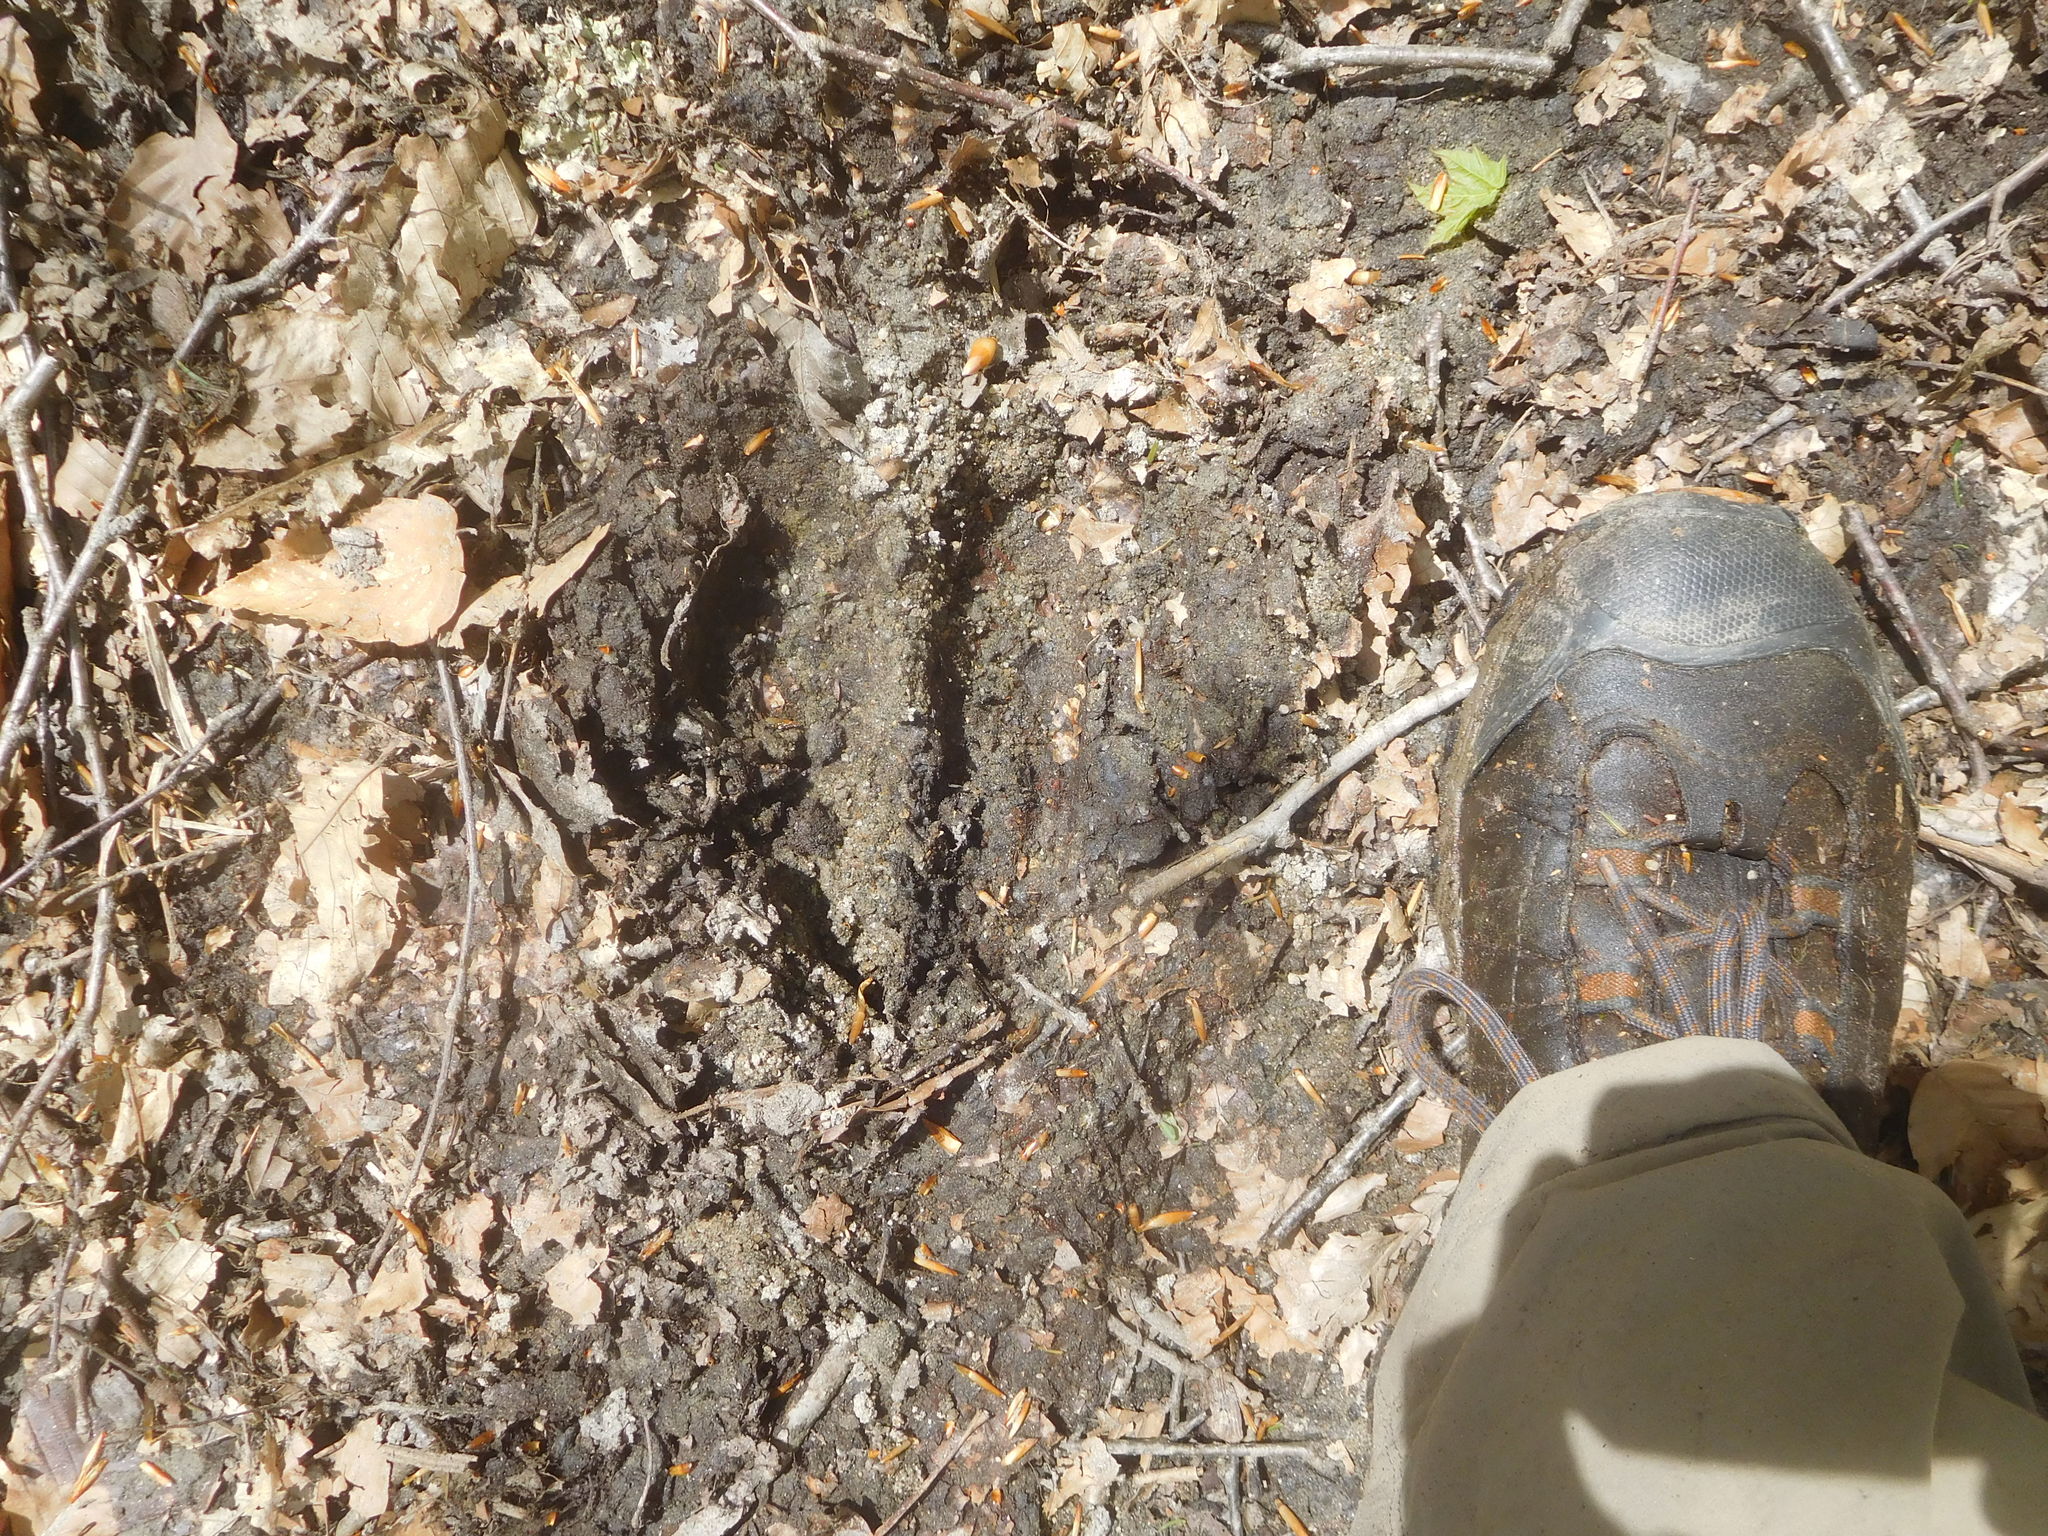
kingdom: Animalia
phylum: Chordata
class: Mammalia
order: Artiodactyla
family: Cervidae
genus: Alces
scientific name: Alces alces
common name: Moose
